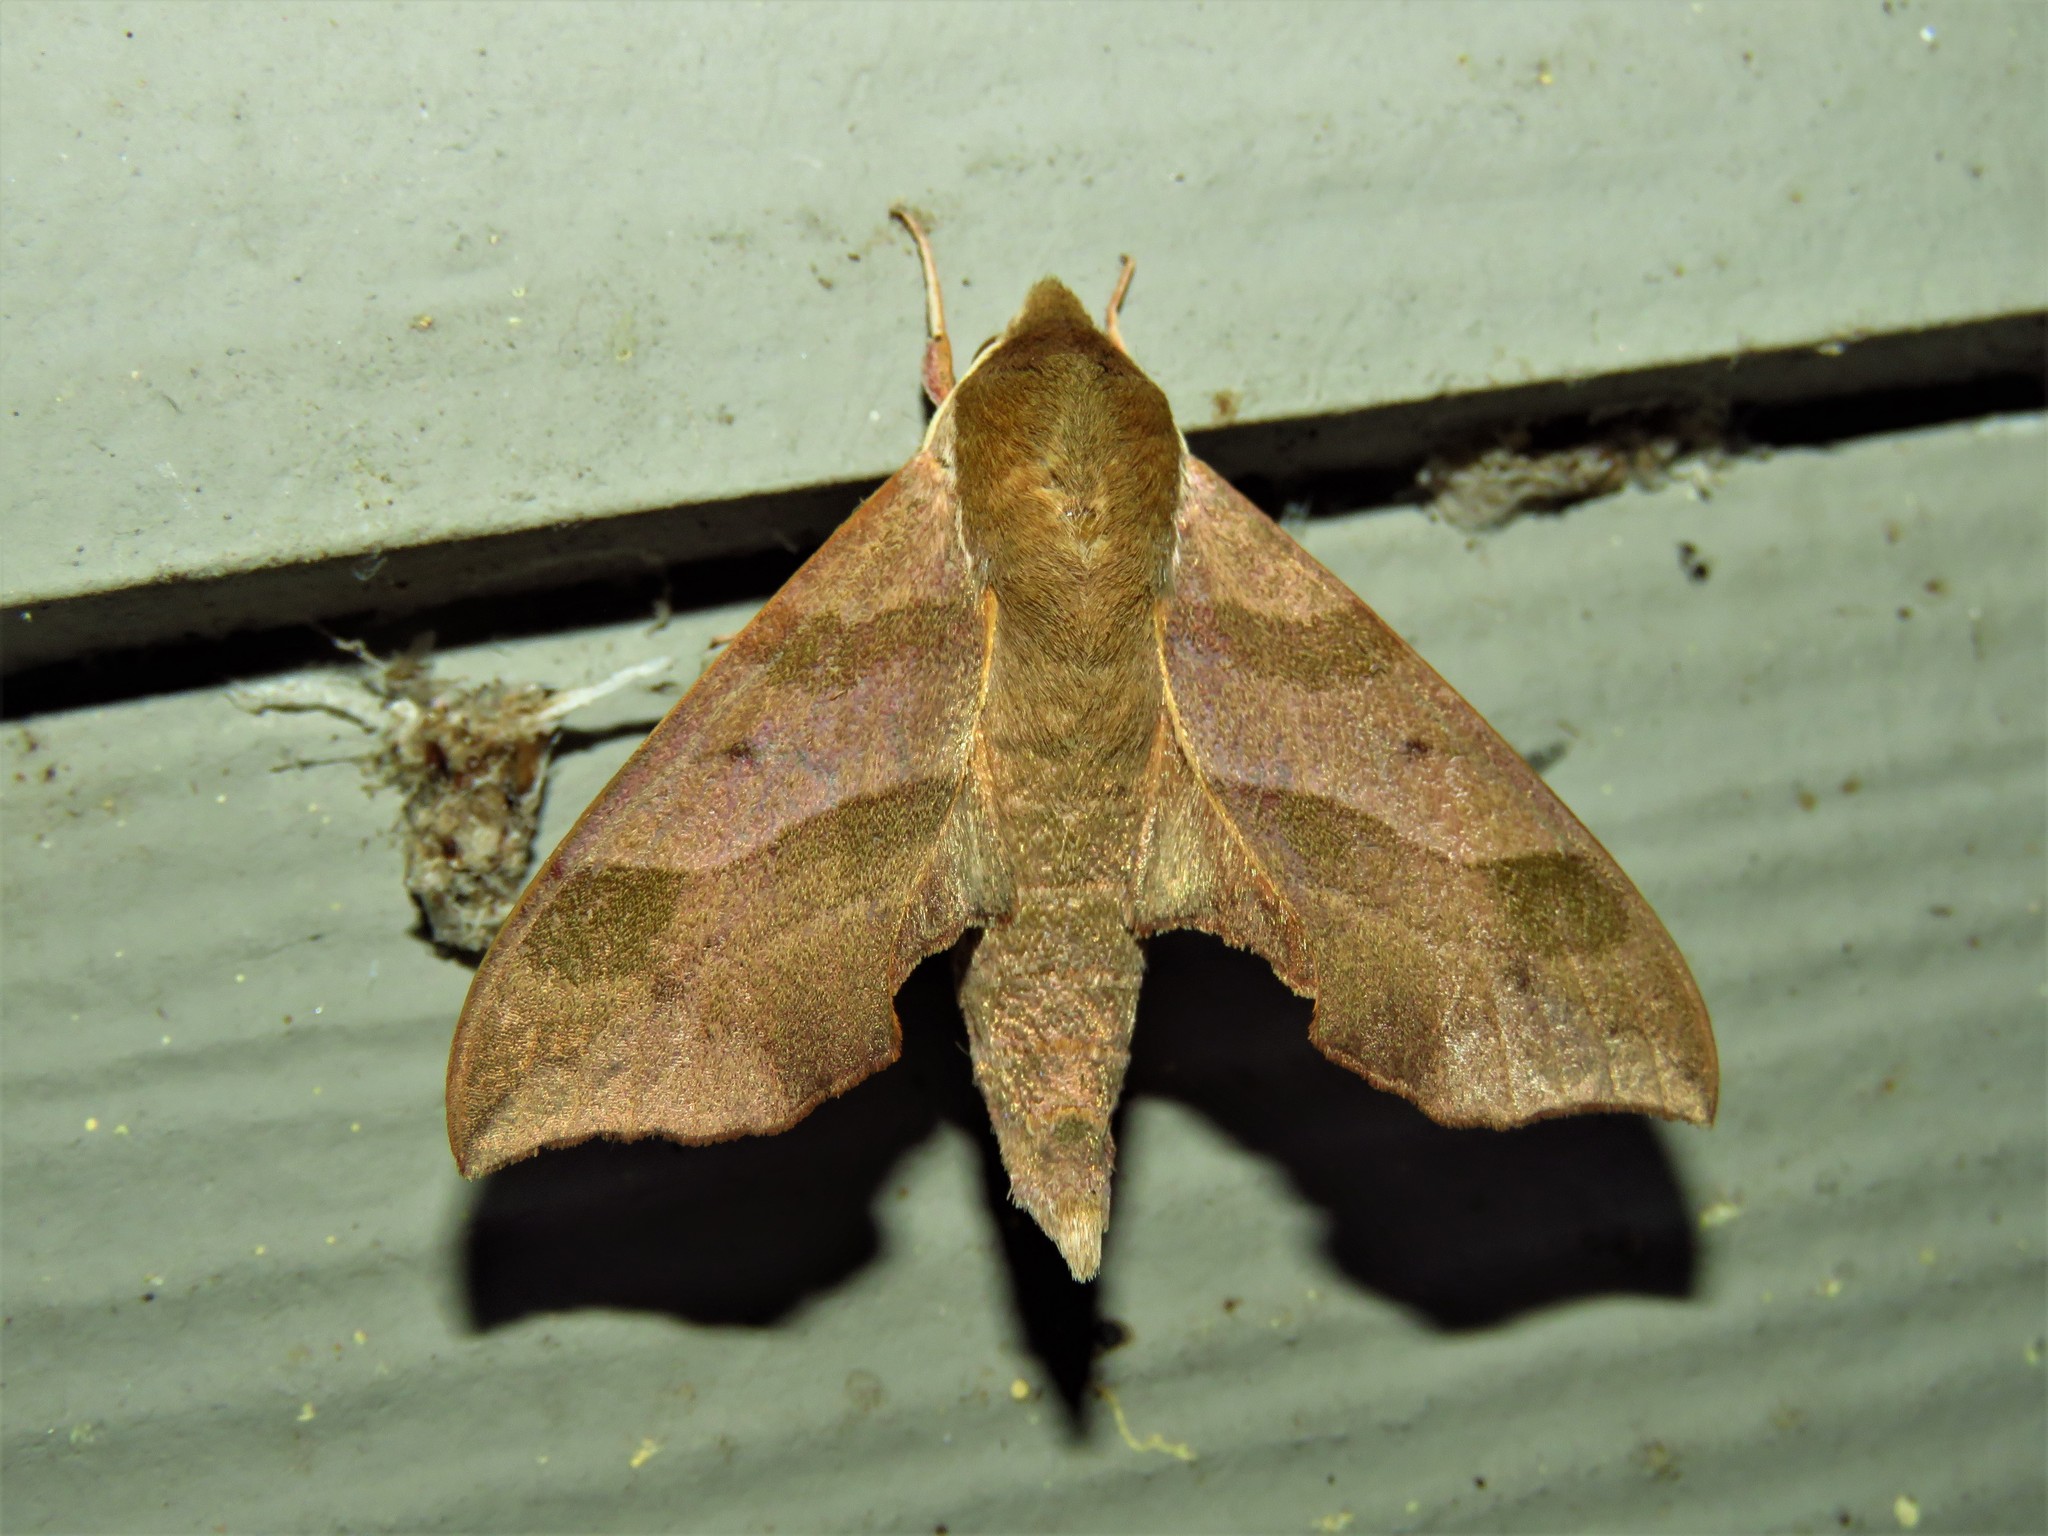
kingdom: Animalia
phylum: Arthropoda
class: Insecta
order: Lepidoptera
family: Sphingidae
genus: Darapsa
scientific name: Darapsa myron
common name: Hog sphinx
